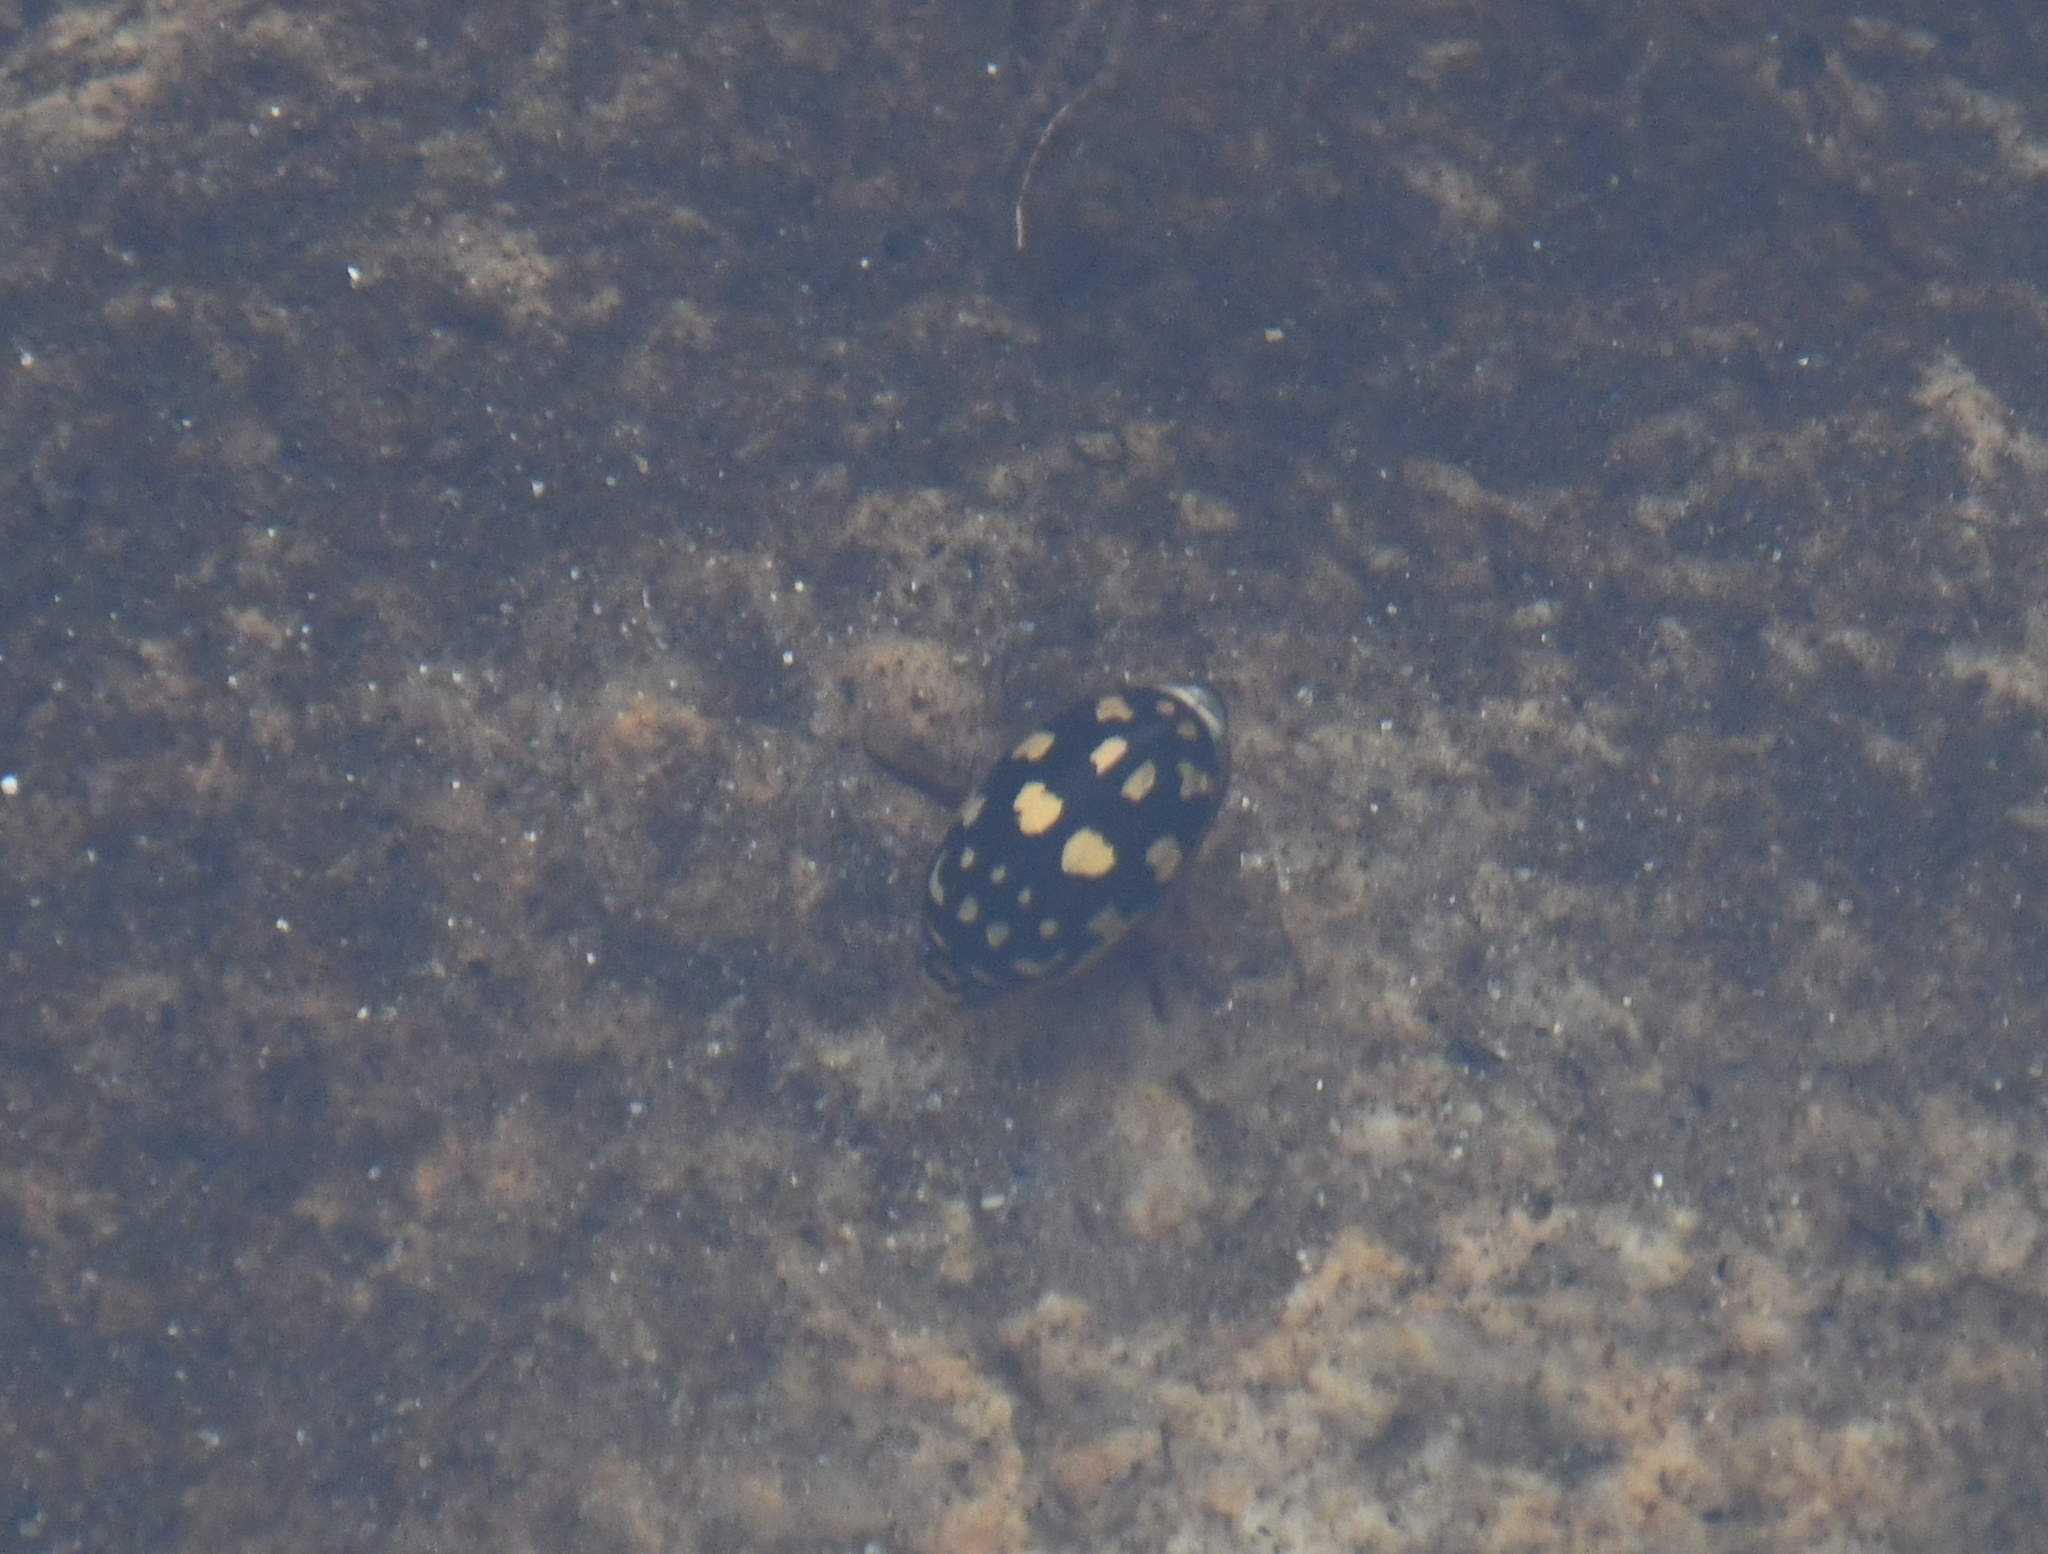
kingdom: Animalia
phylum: Arthropoda
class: Insecta
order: Coleoptera
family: Dytiscidae
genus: Thermonectus
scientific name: Thermonectus marmoratus
